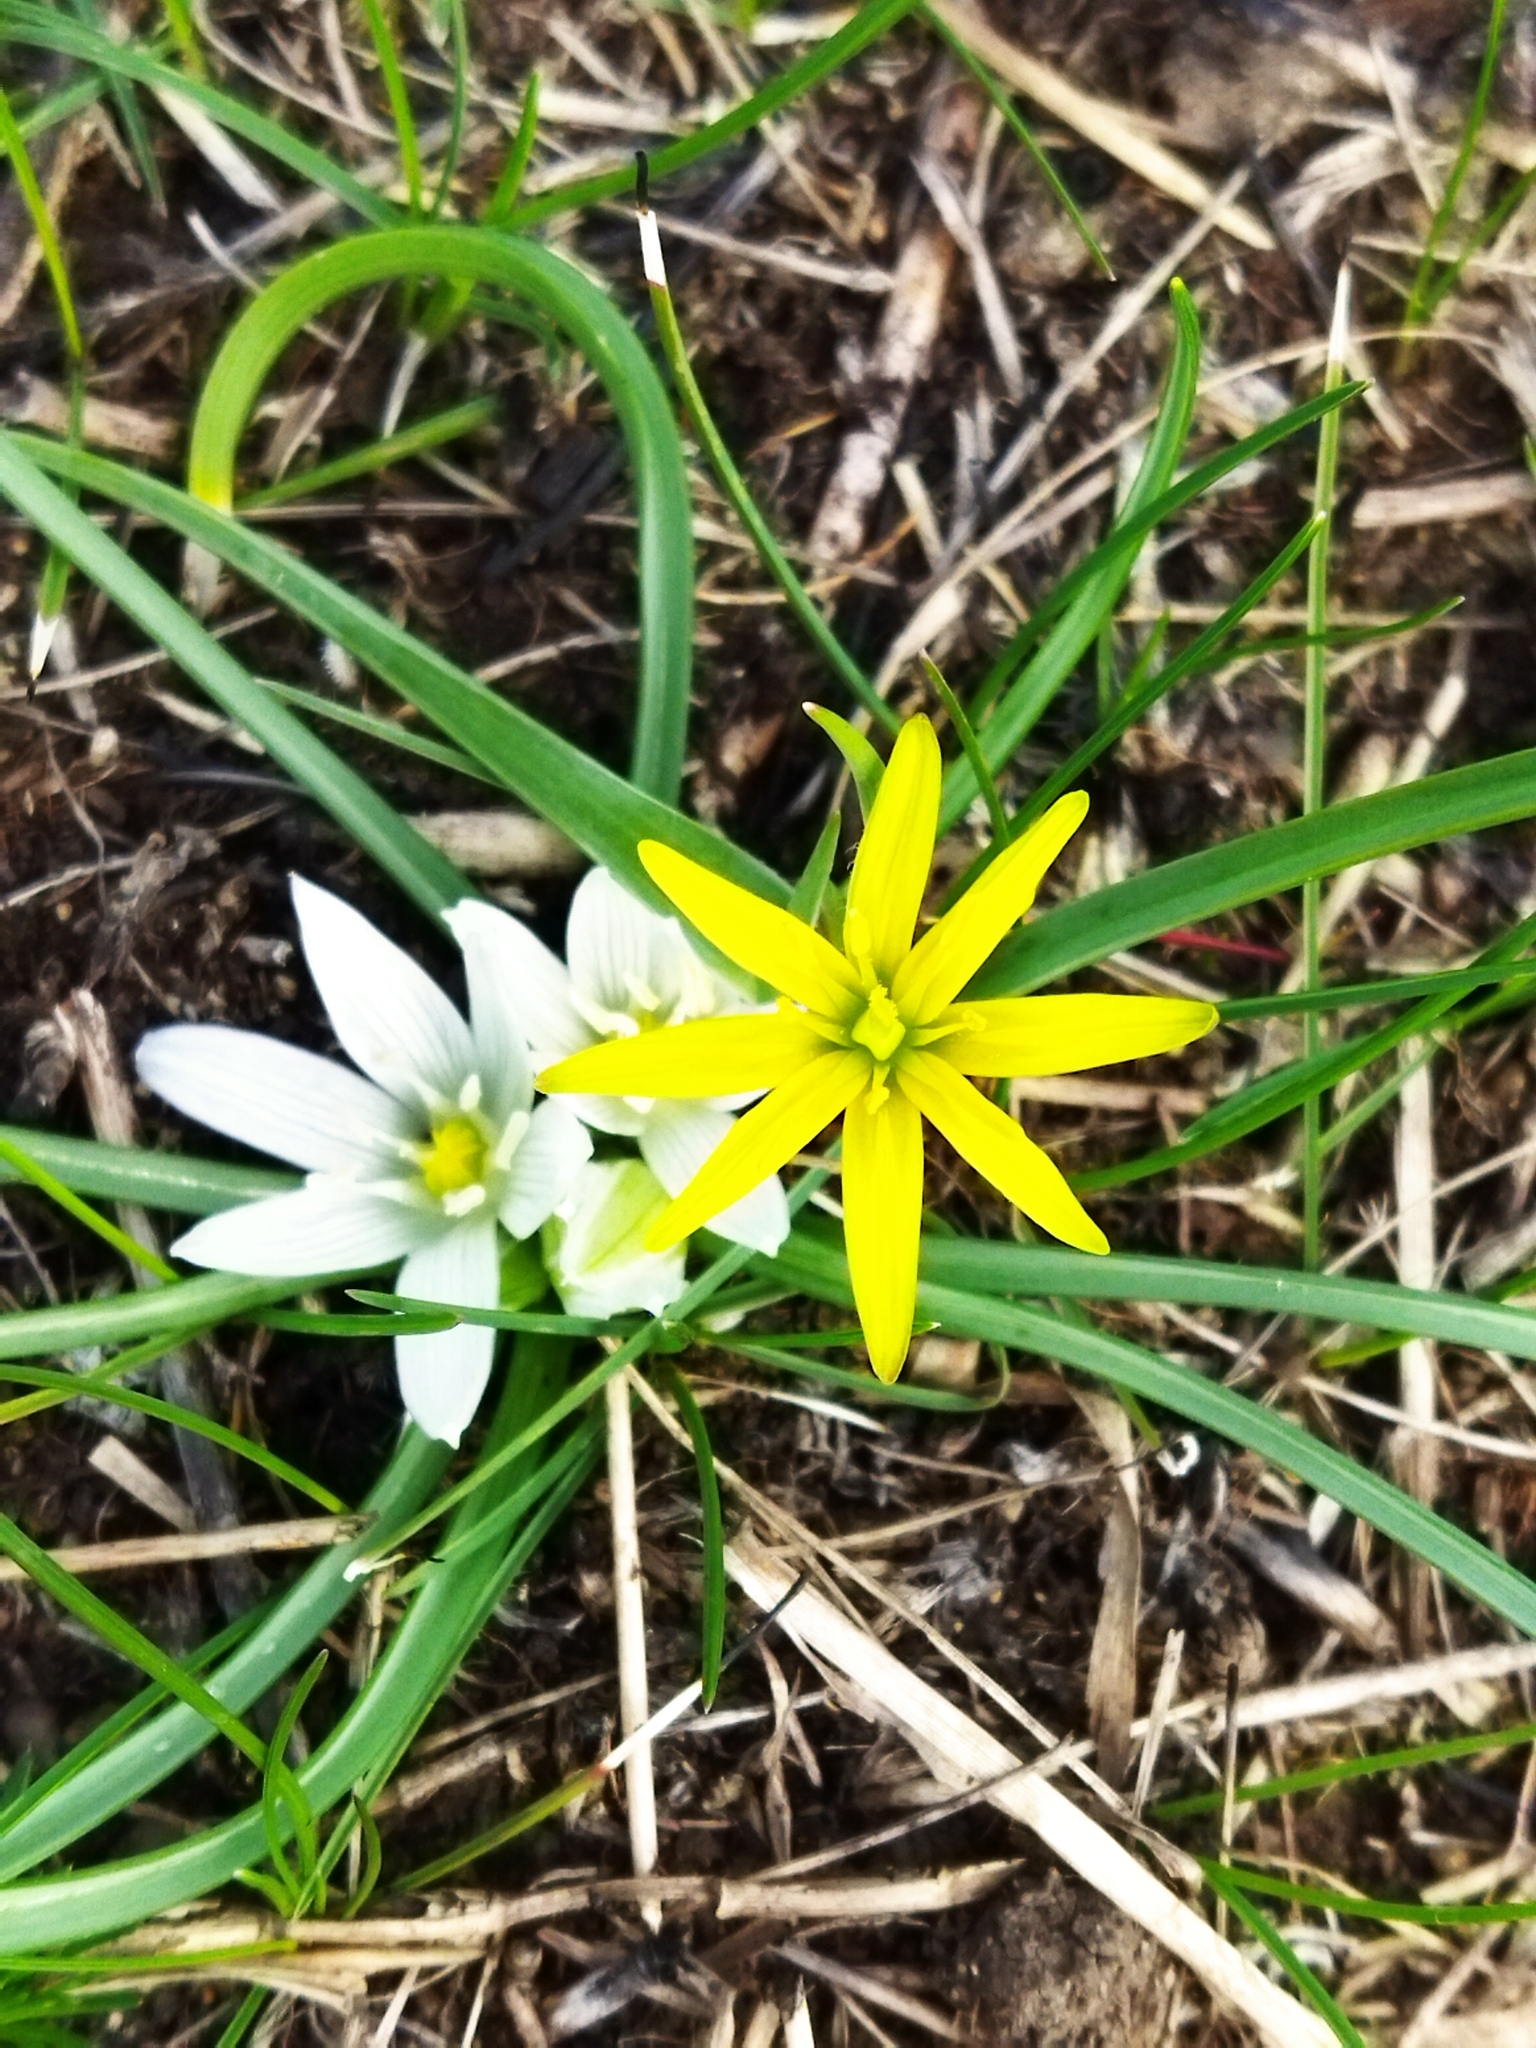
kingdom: Plantae
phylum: Tracheophyta
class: Liliopsida
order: Liliales
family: Liliaceae
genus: Gagea
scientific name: Gagea
